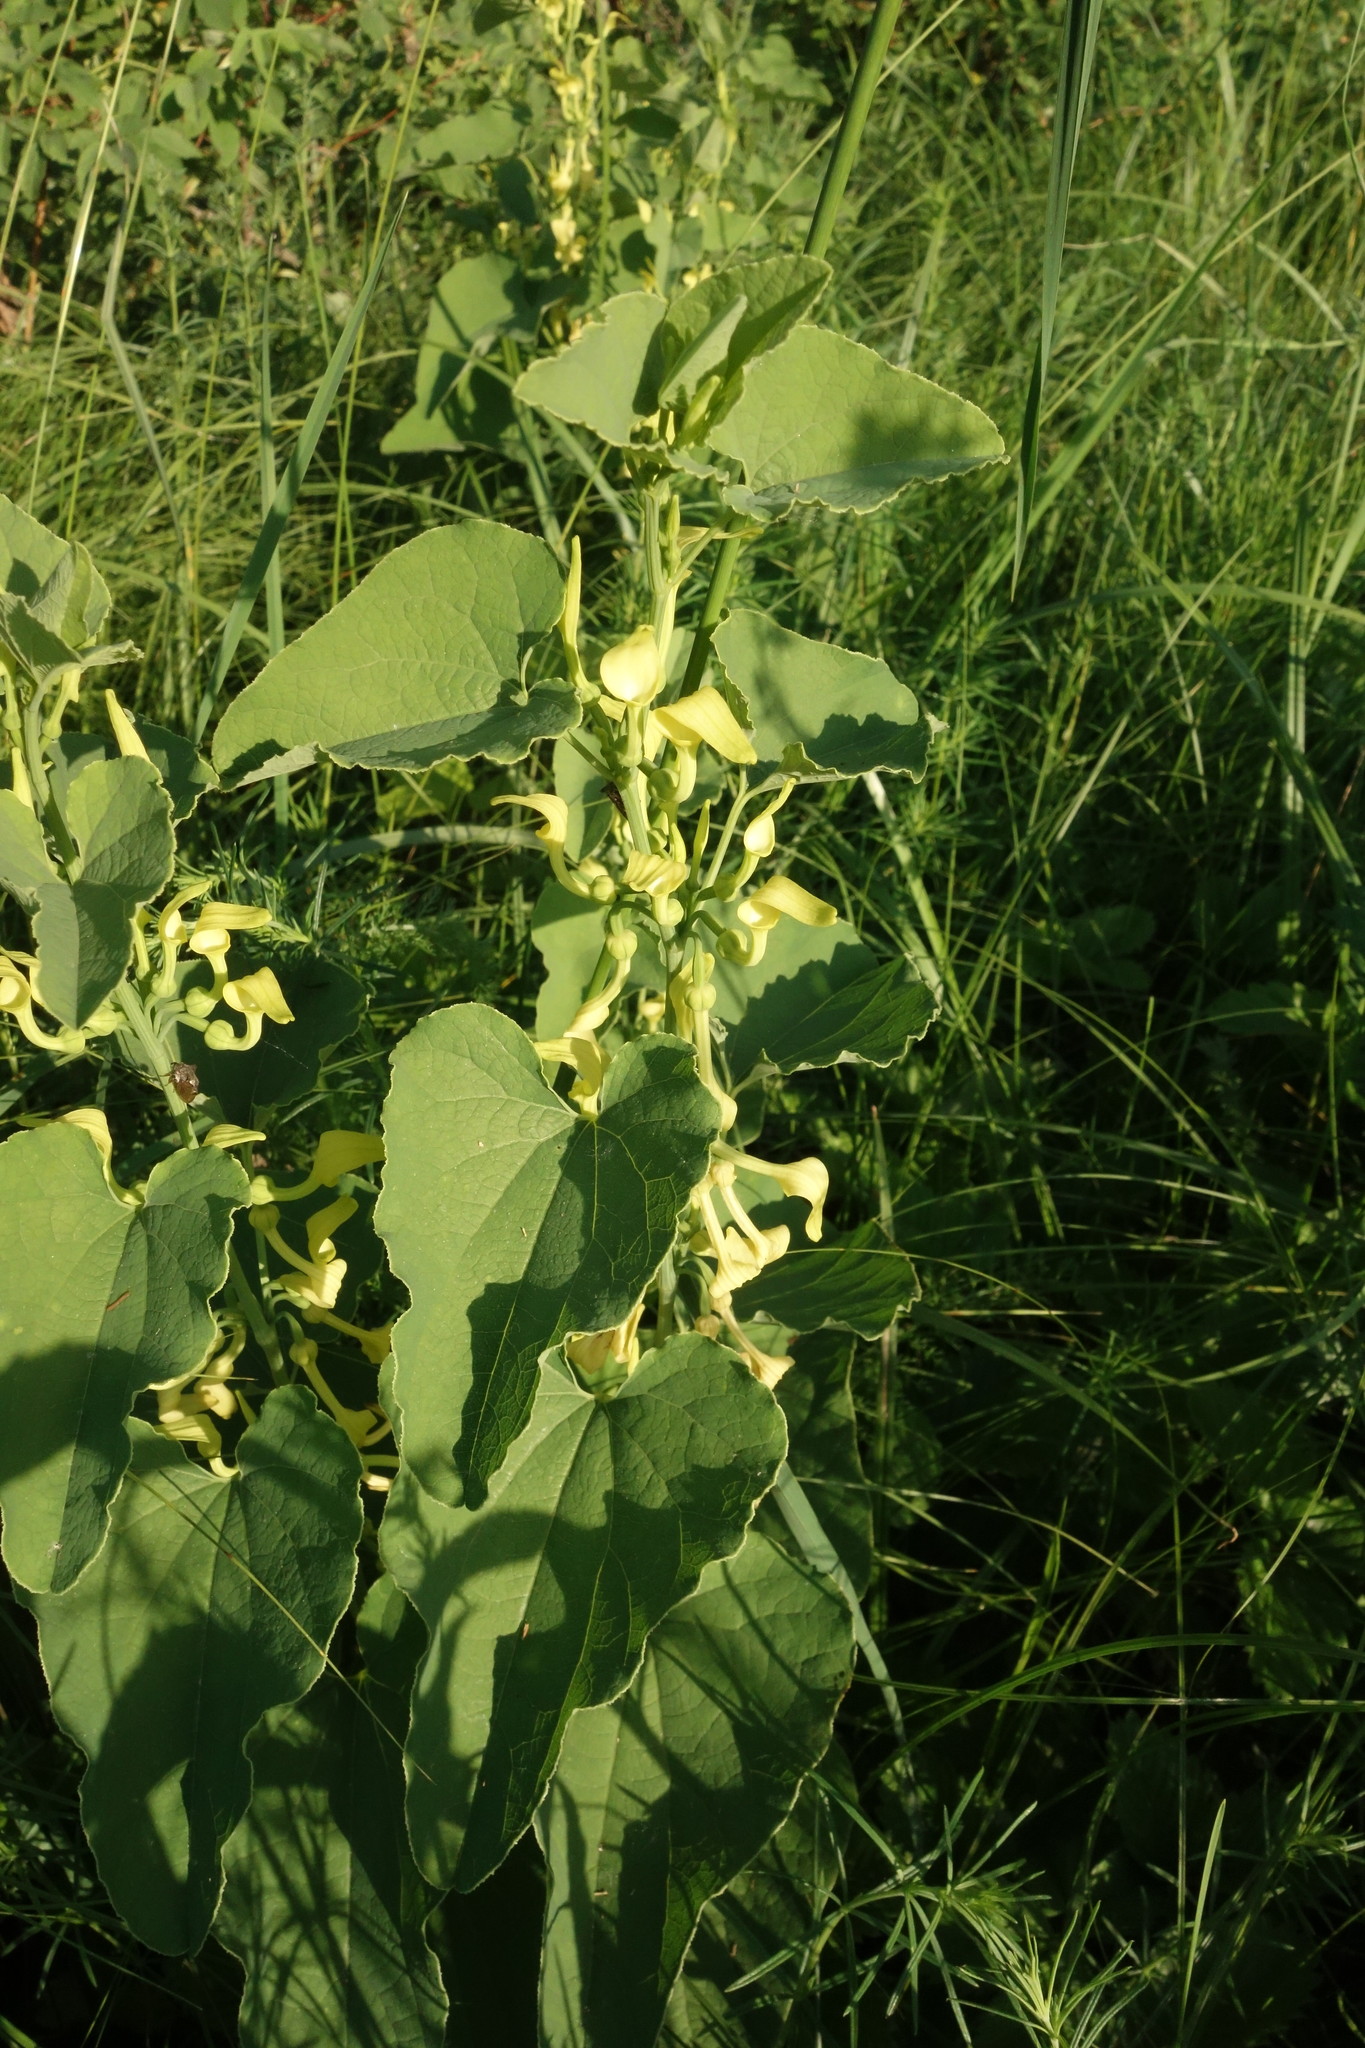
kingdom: Plantae
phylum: Tracheophyta
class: Magnoliopsida
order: Piperales
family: Aristolochiaceae
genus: Aristolochia
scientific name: Aristolochia clematitis
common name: Birthwort
